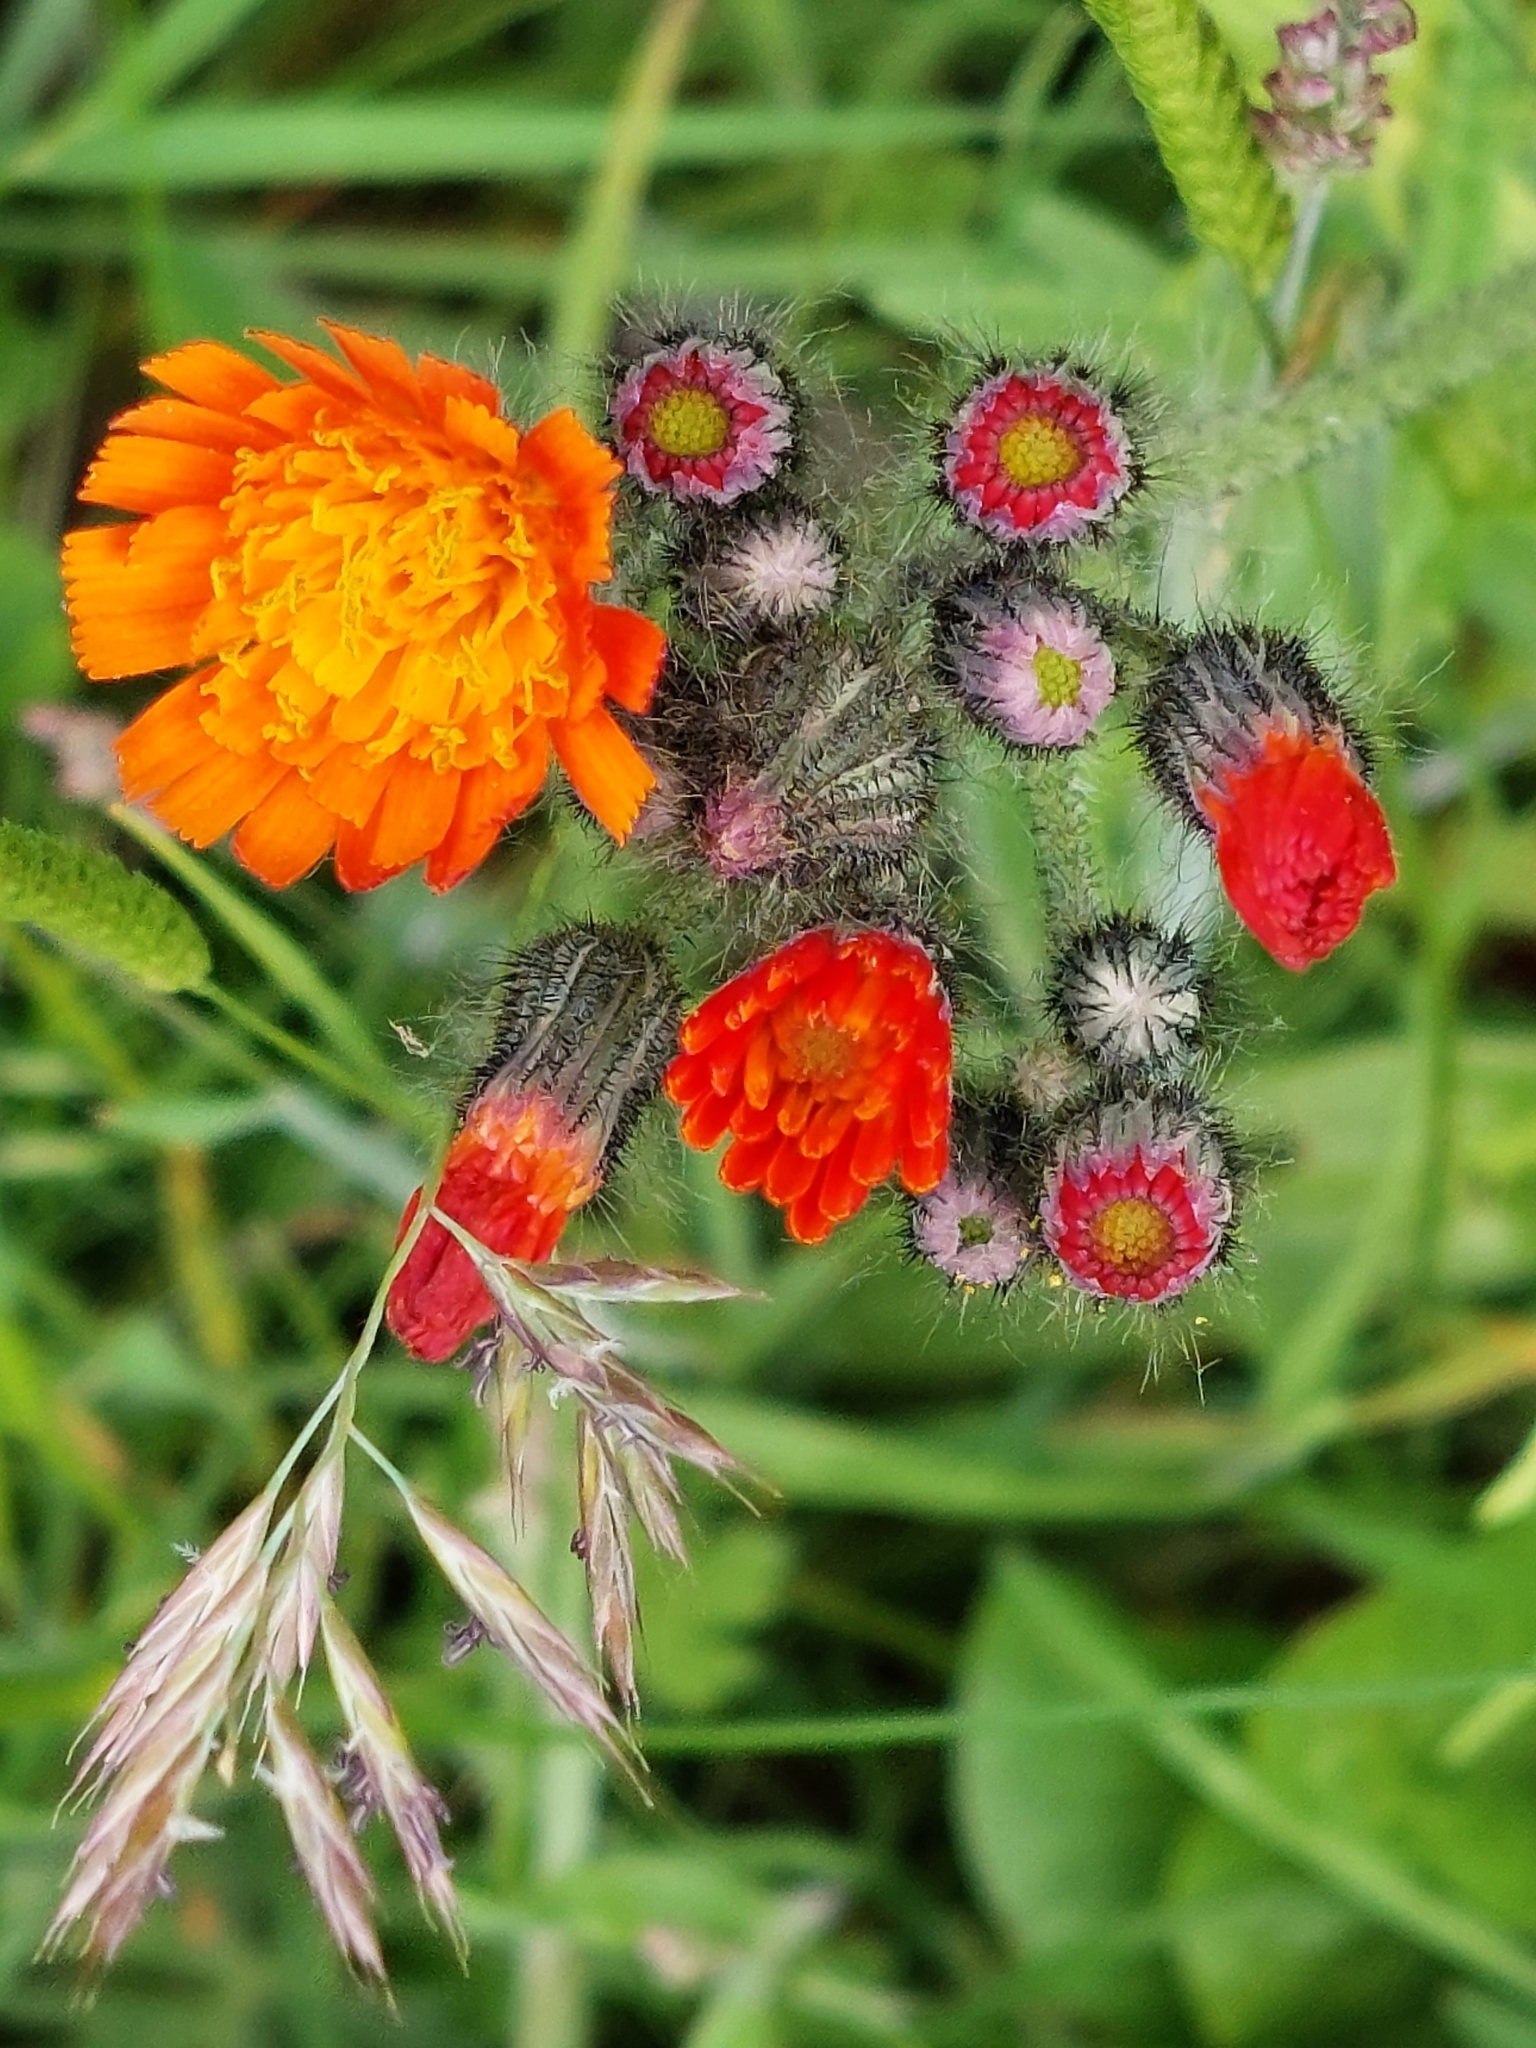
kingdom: Plantae
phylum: Tracheophyta
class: Magnoliopsida
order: Asterales
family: Asteraceae
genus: Pilosella
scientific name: Pilosella aurantiaca
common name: Fox-and-cubs
